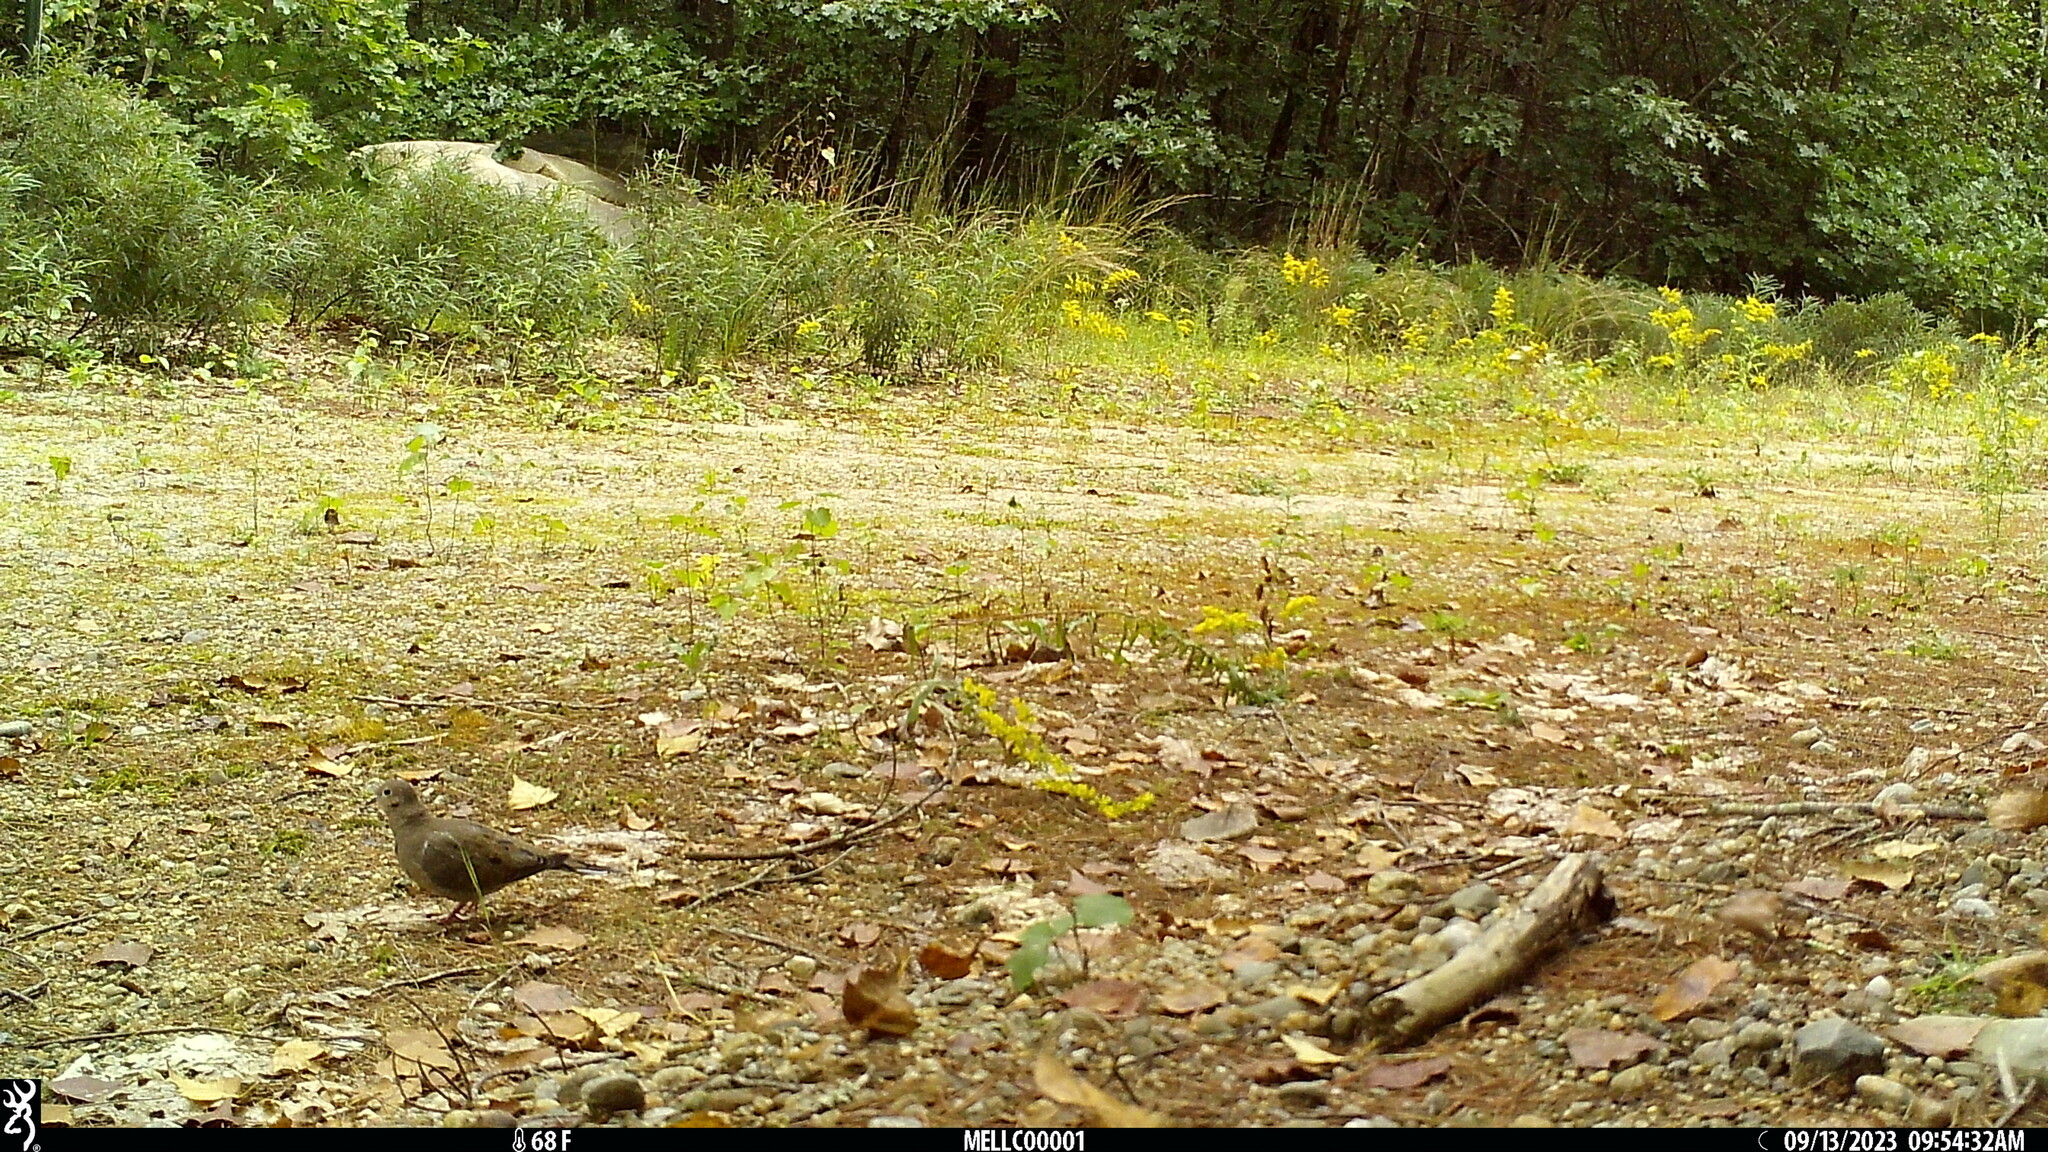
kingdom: Animalia
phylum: Chordata
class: Aves
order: Columbiformes
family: Columbidae
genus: Zenaida
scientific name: Zenaida macroura
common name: Mourning dove
